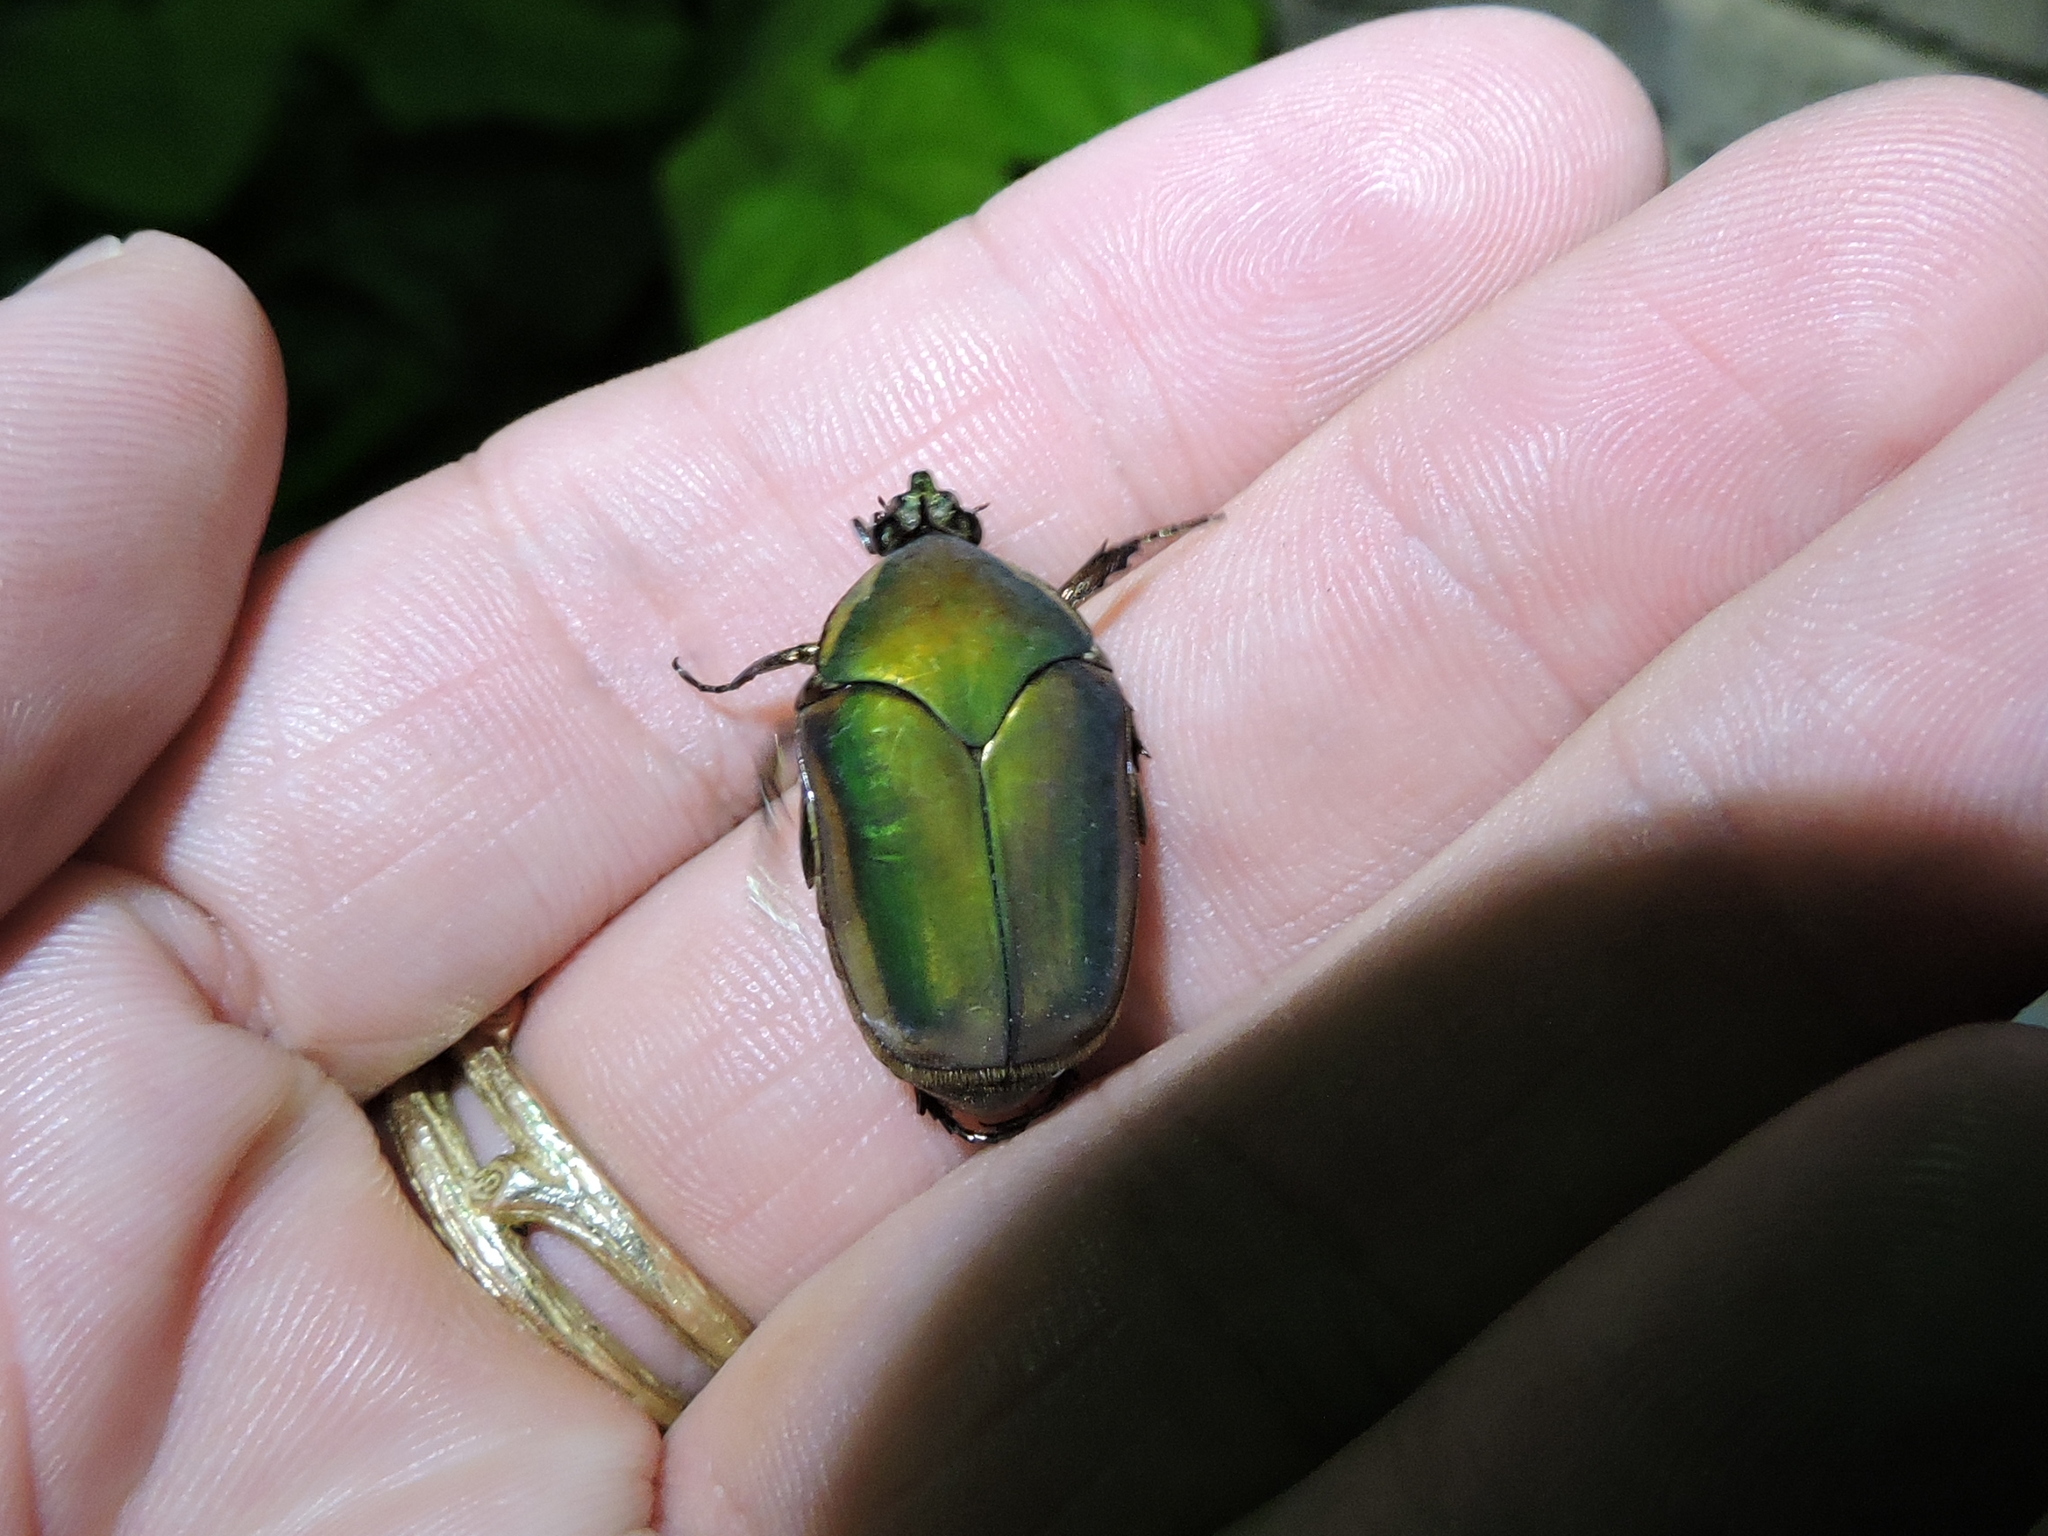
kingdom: Animalia
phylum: Arthropoda
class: Insecta
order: Coleoptera
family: Scarabaeidae
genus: Cotinis
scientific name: Cotinis nitida
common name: Common green june beetle
